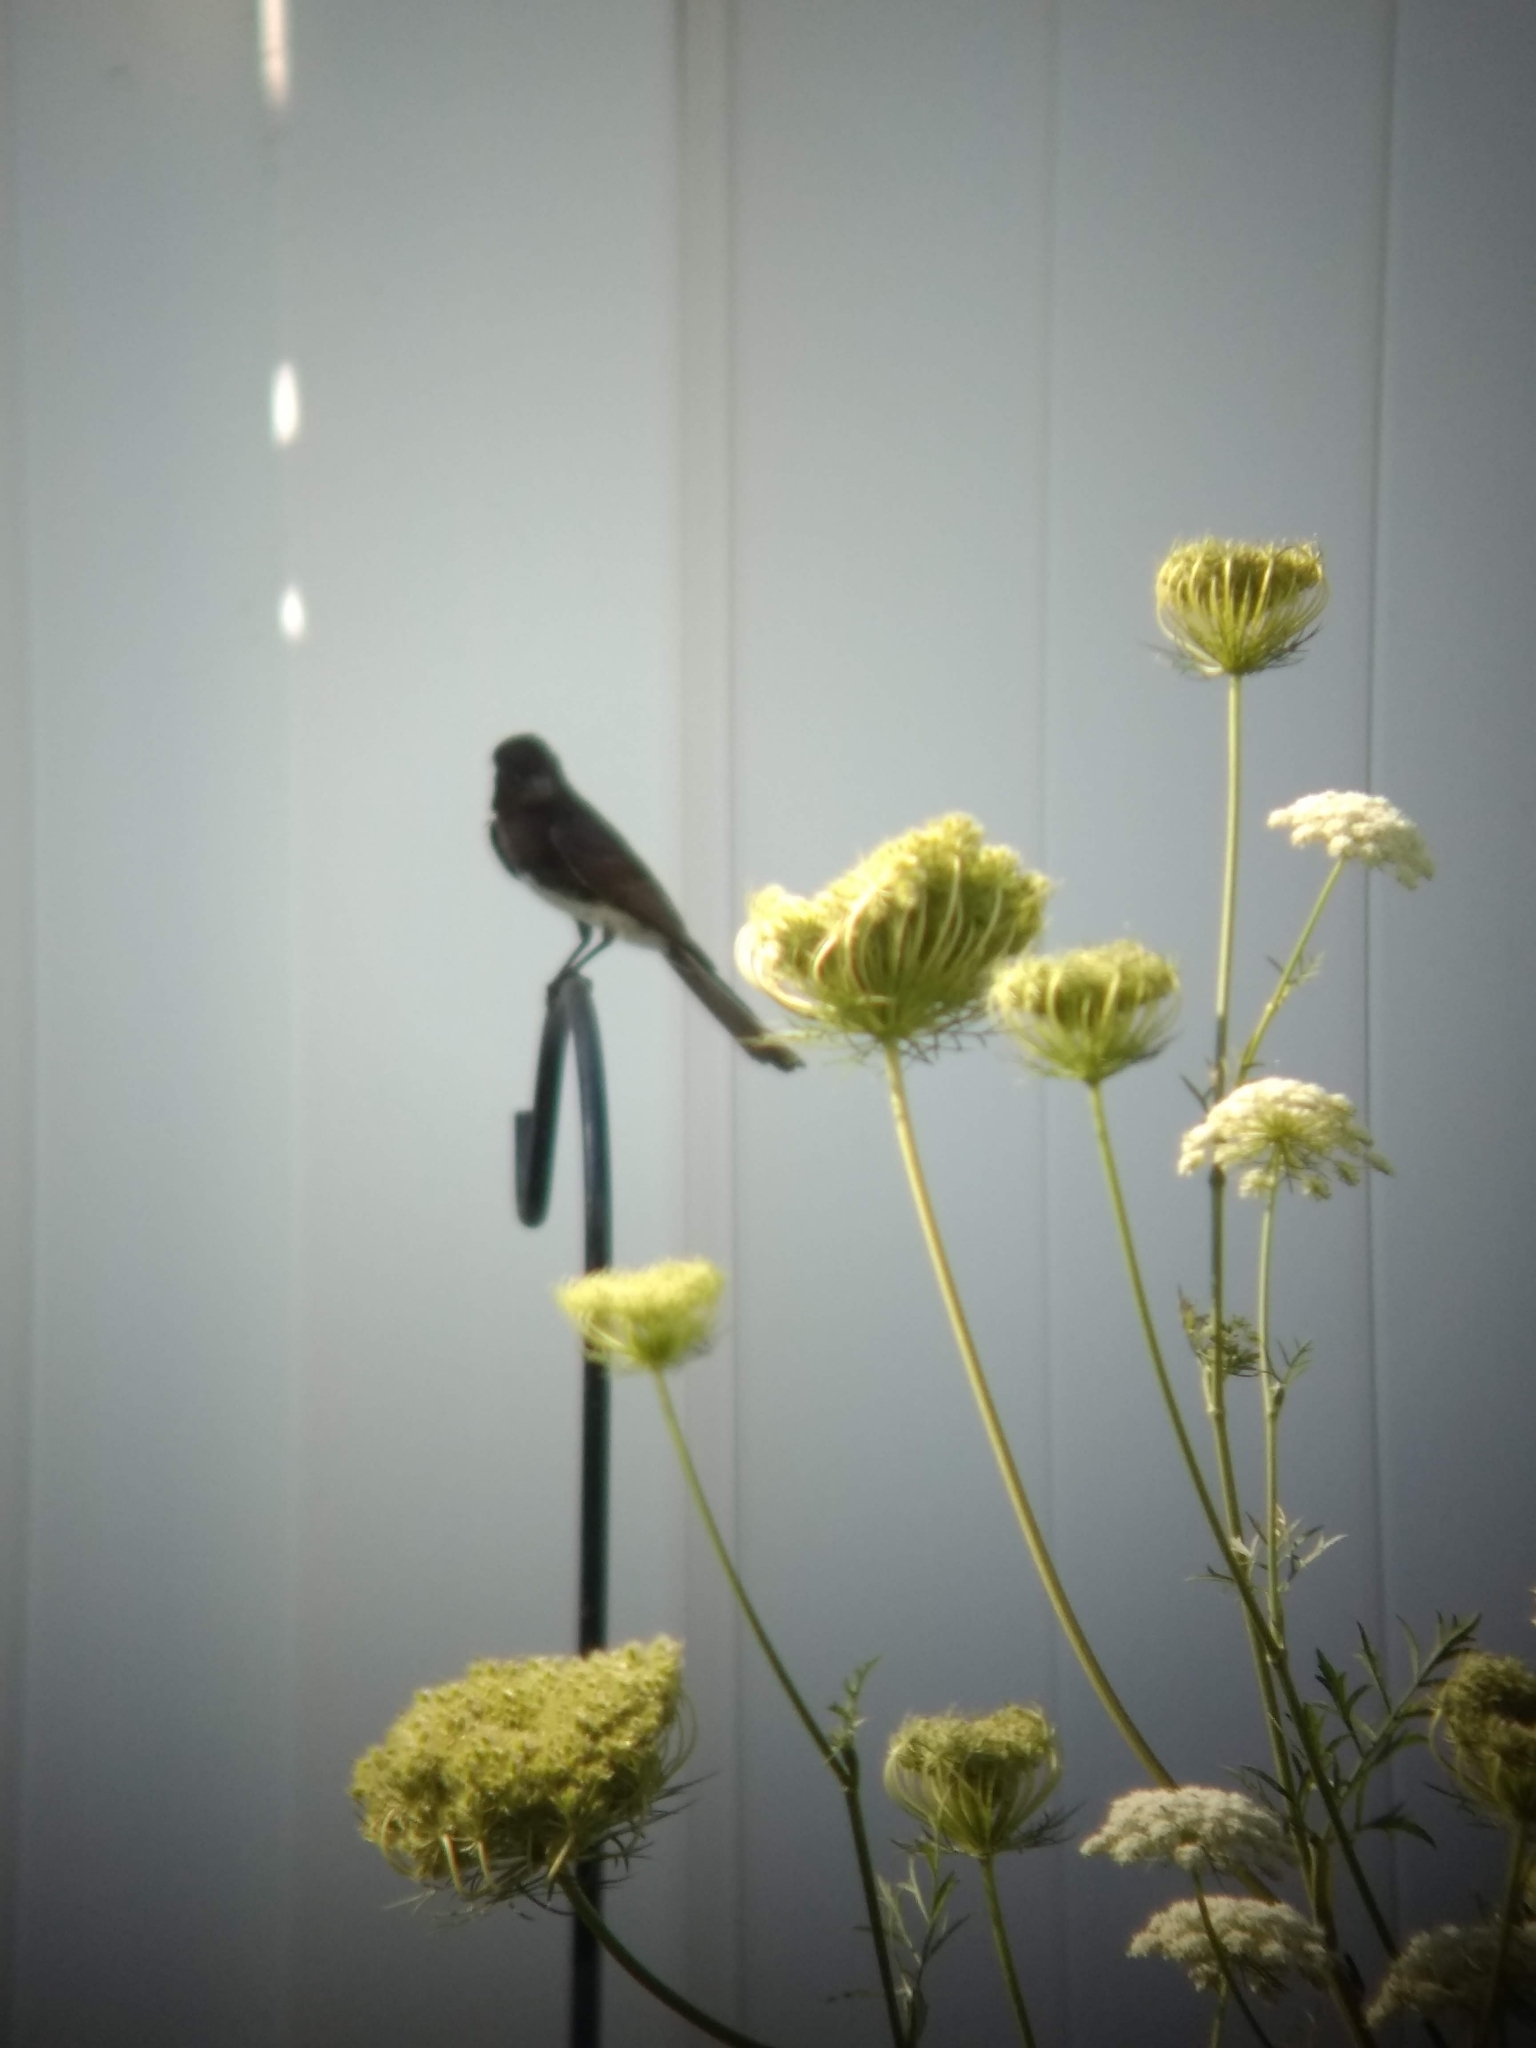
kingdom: Animalia
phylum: Chordata
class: Aves
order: Passeriformes
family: Tyrannidae
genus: Sayornis
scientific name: Sayornis nigricans
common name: Black phoebe
